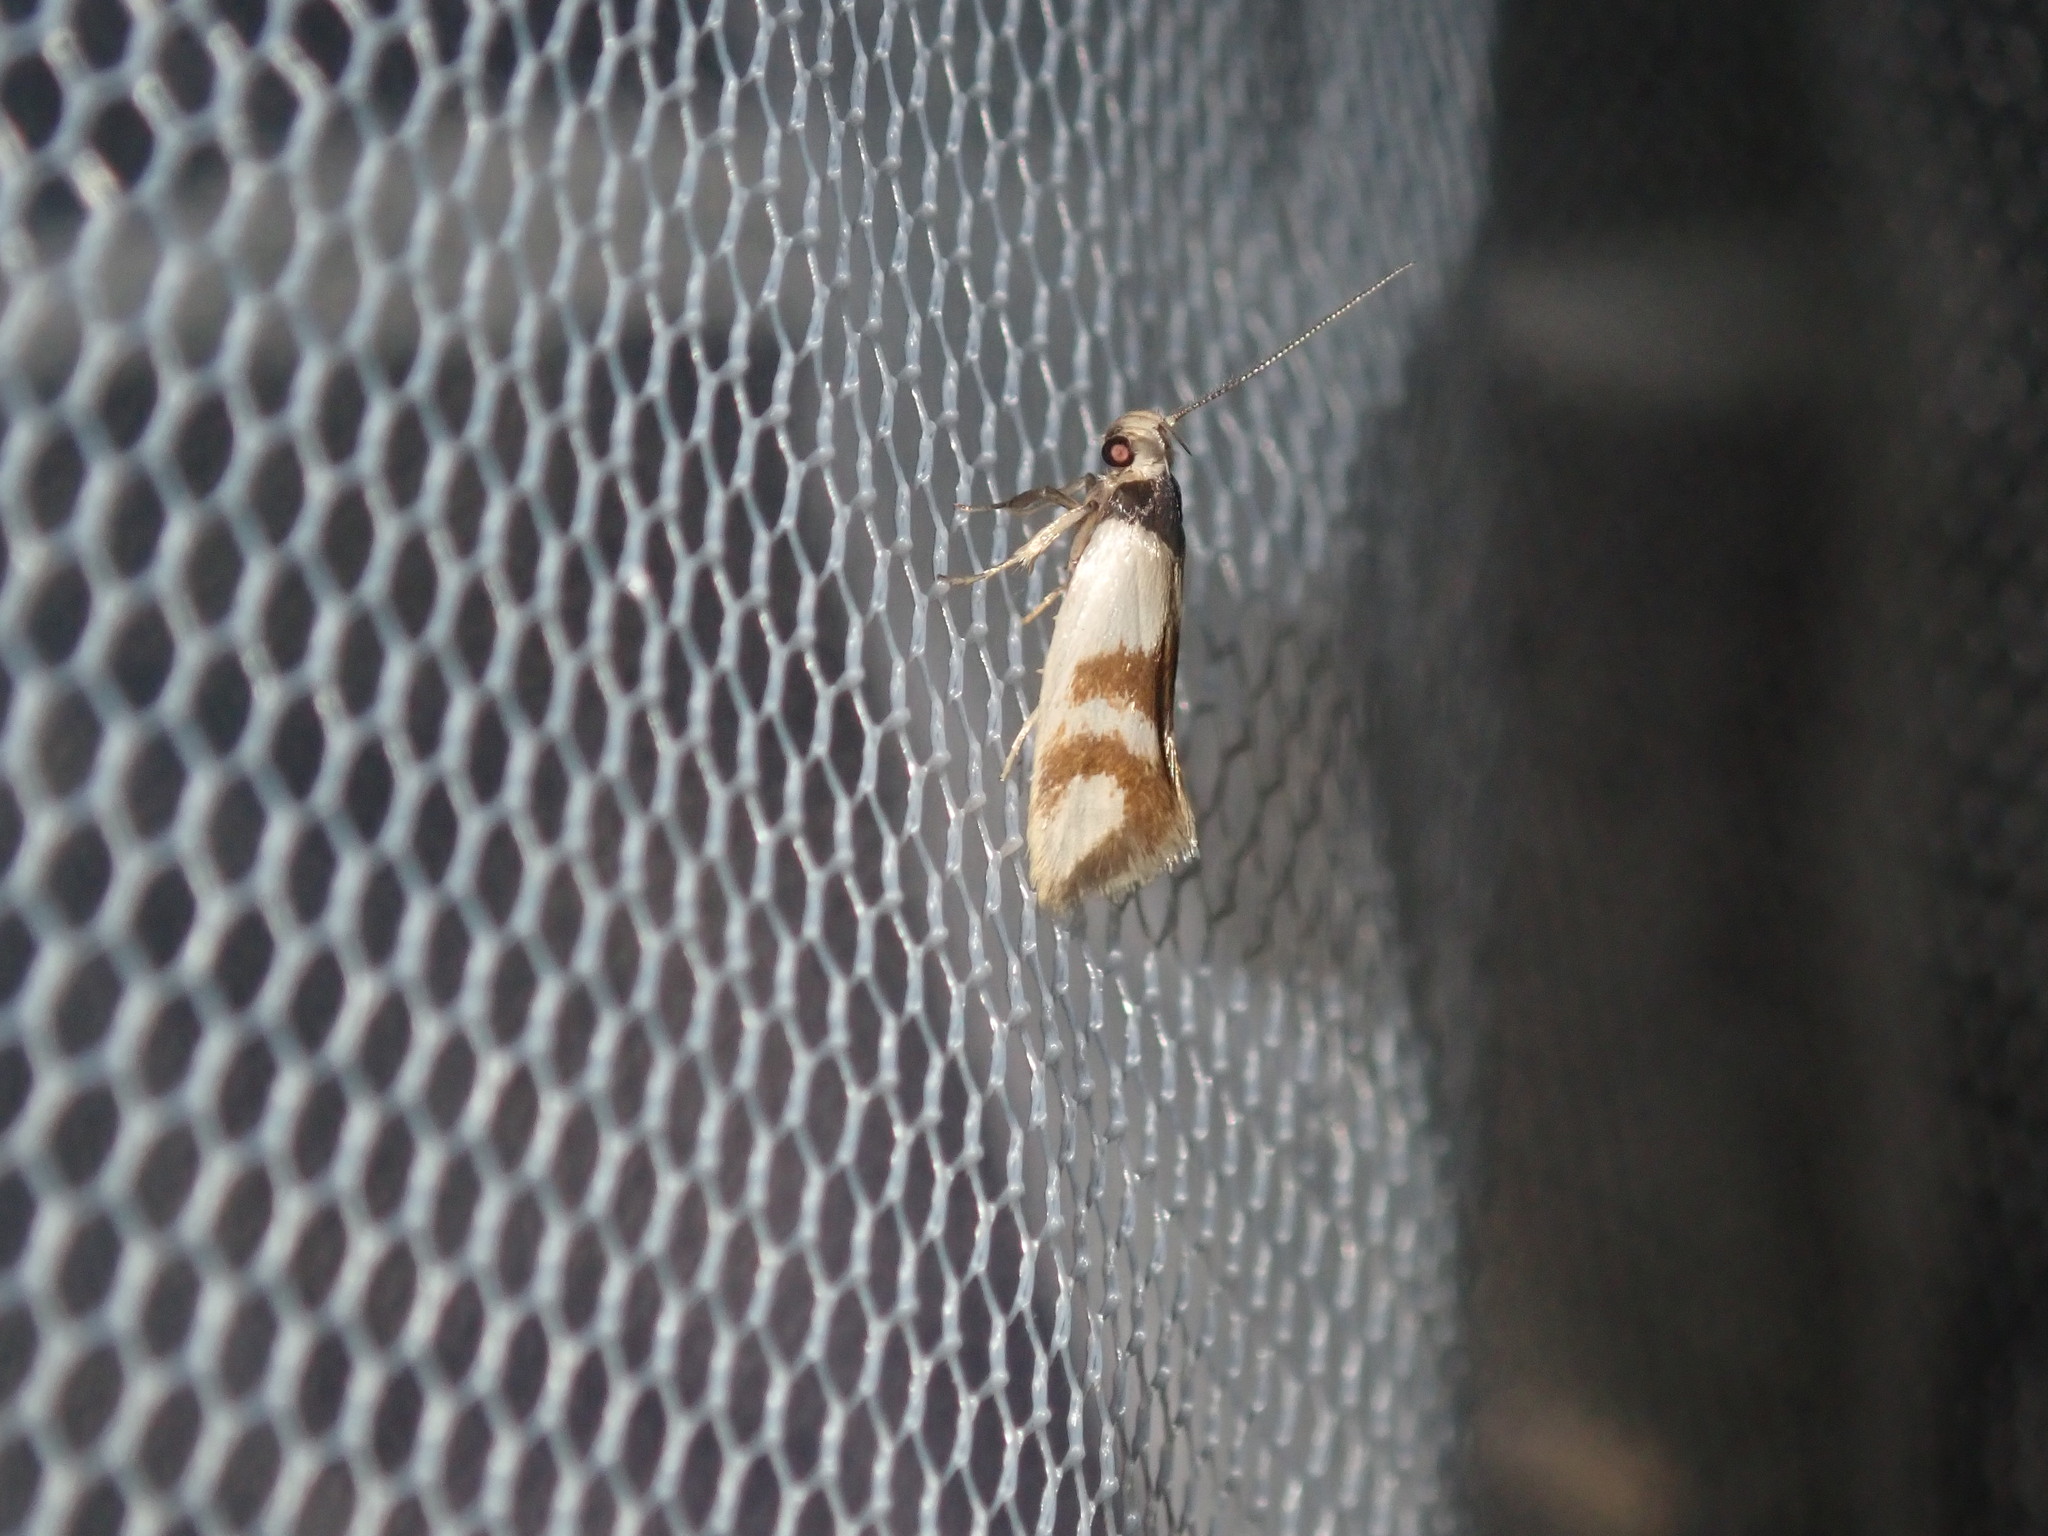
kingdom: Animalia
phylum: Arthropoda
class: Insecta
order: Lepidoptera
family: Oecophoridae
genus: Antipterna
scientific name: Antipterna trilicella
